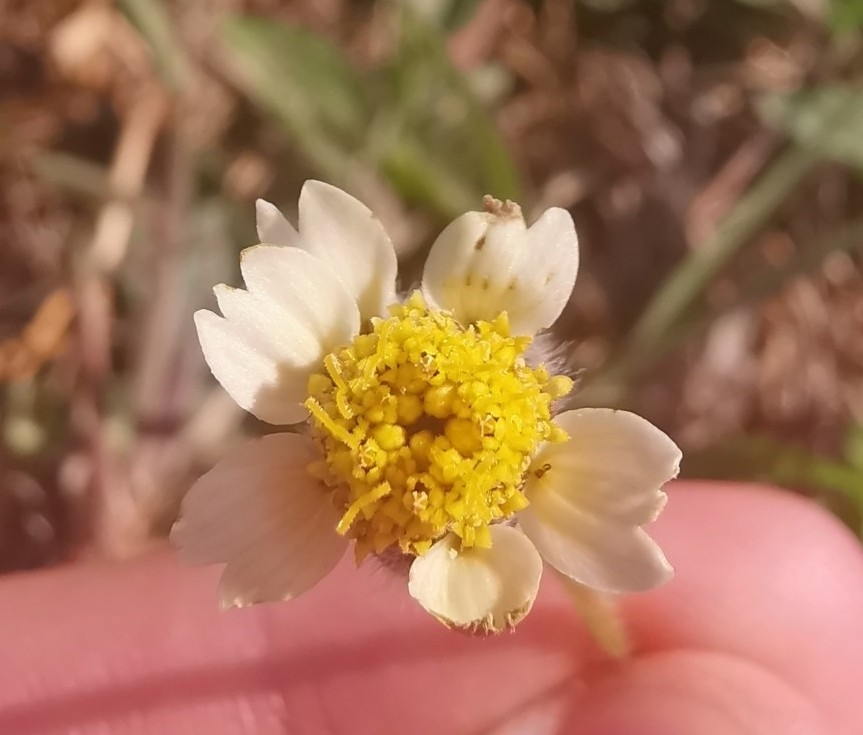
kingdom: Plantae
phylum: Tracheophyta
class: Magnoliopsida
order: Asterales
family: Asteraceae
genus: Tridax
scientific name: Tridax procumbens
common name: Coatbuttons
